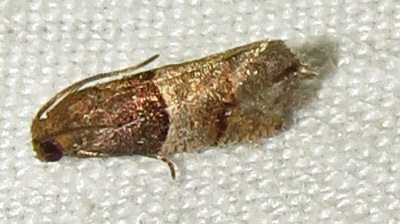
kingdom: Animalia
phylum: Arthropoda
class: Insecta
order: Lepidoptera
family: Tortricidae
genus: Larisa
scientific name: Larisa subsolana
